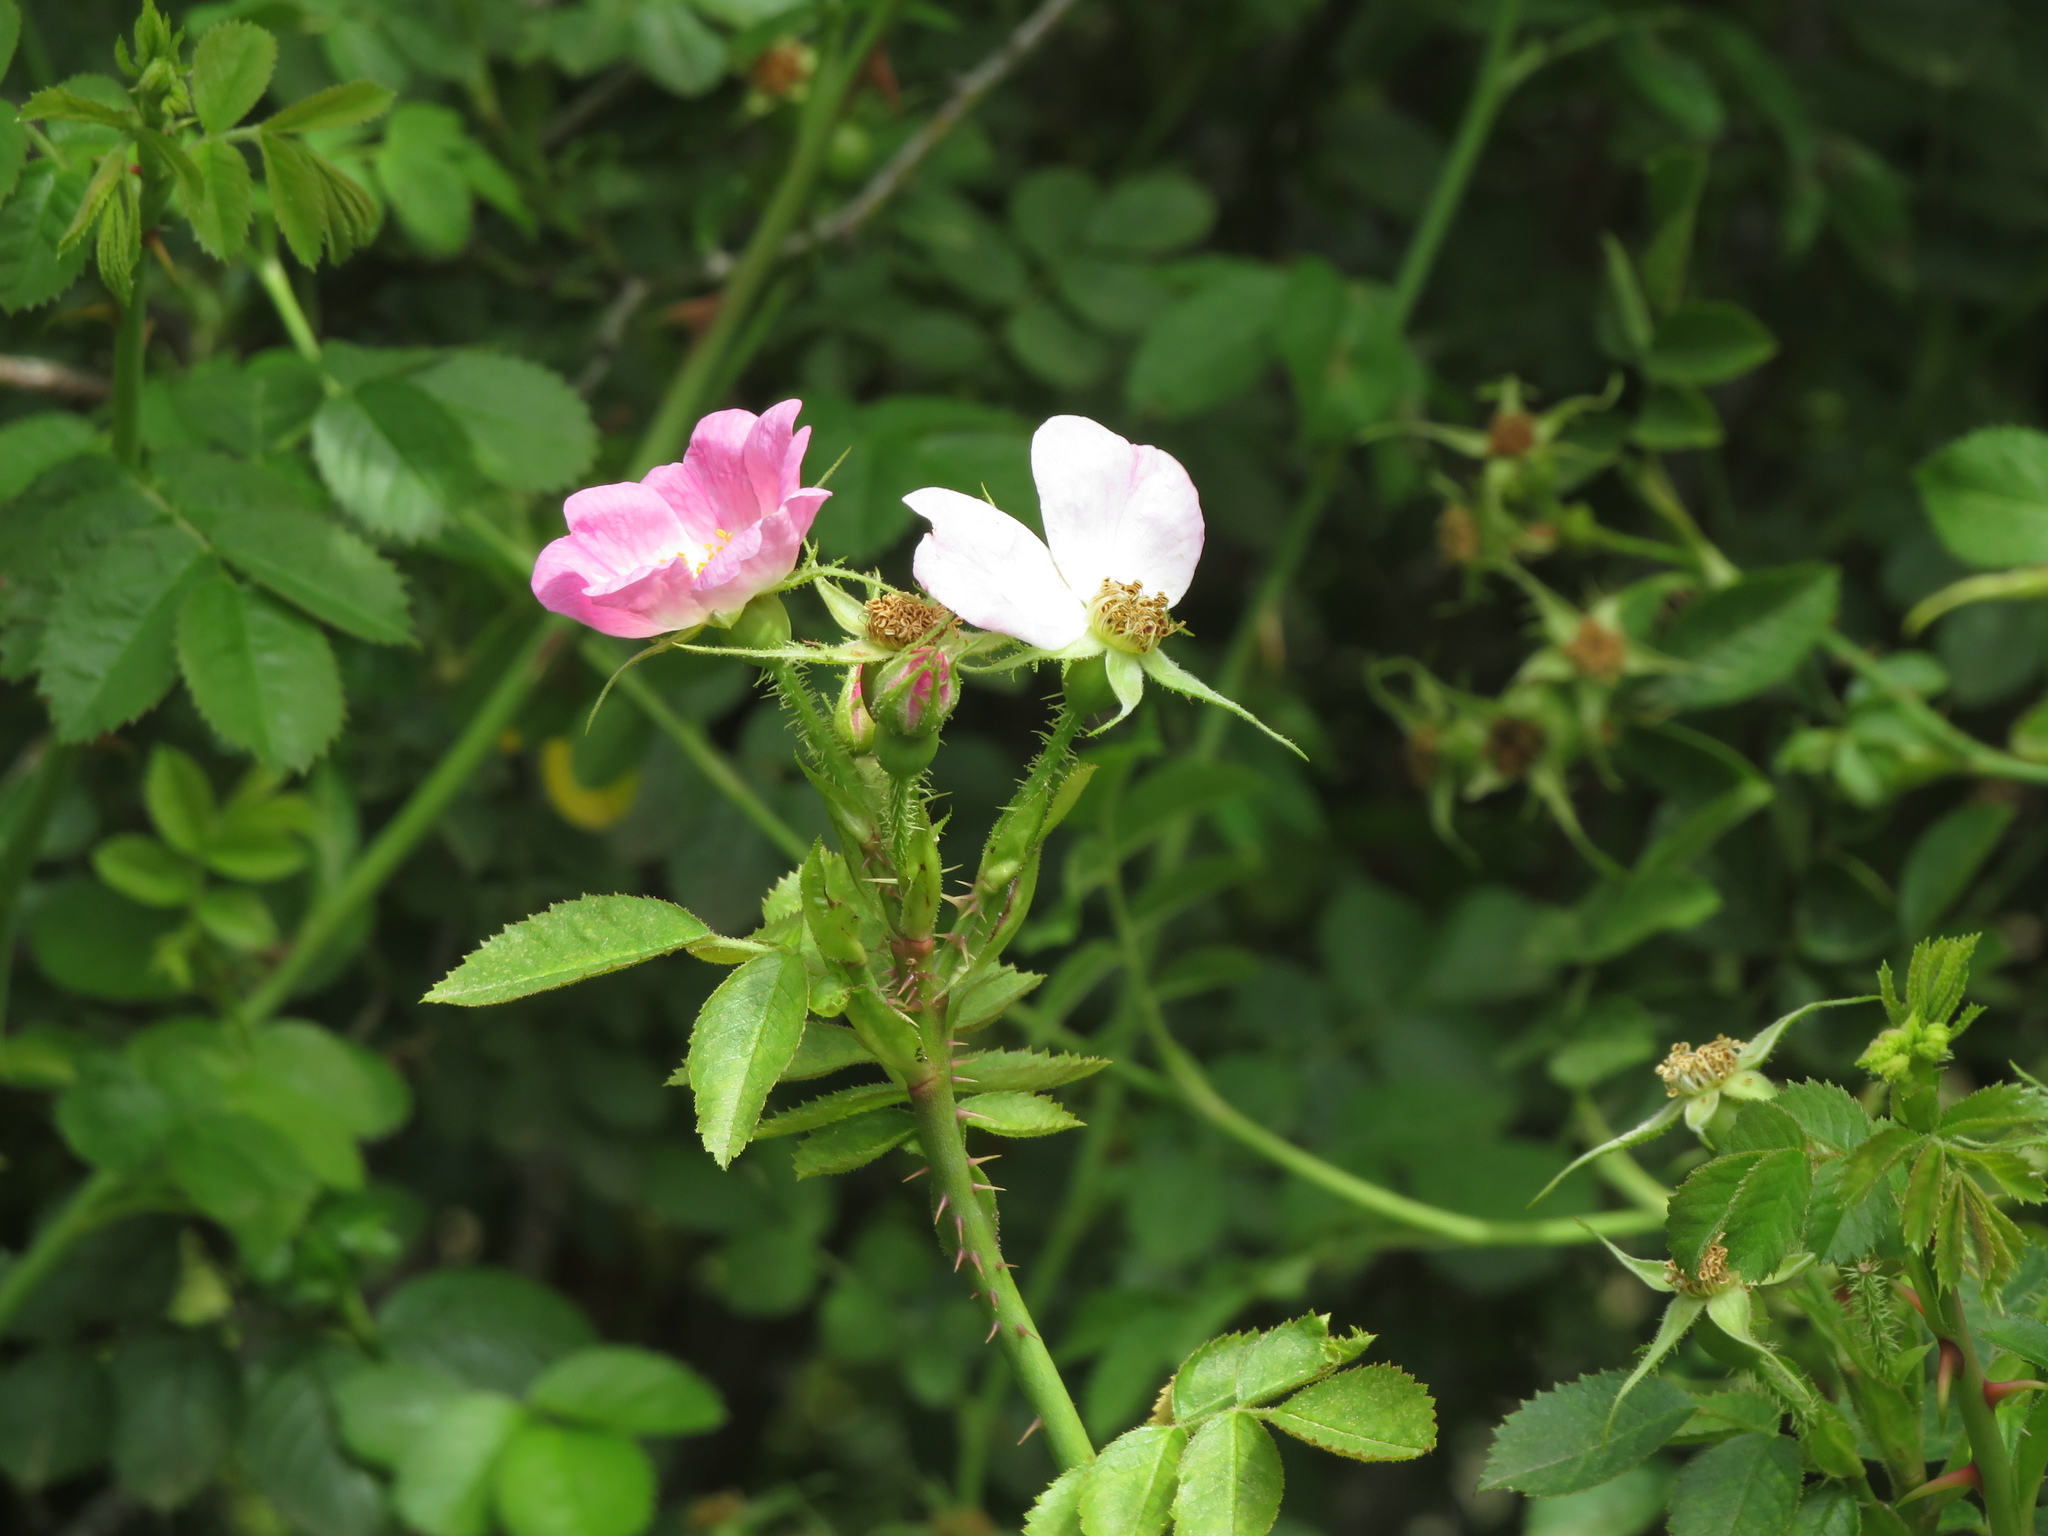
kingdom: Plantae
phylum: Tracheophyta
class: Magnoliopsida
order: Rosales
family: Rosaceae
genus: Rosa
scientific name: Rosa rubiginosa
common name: Sweet-briar
